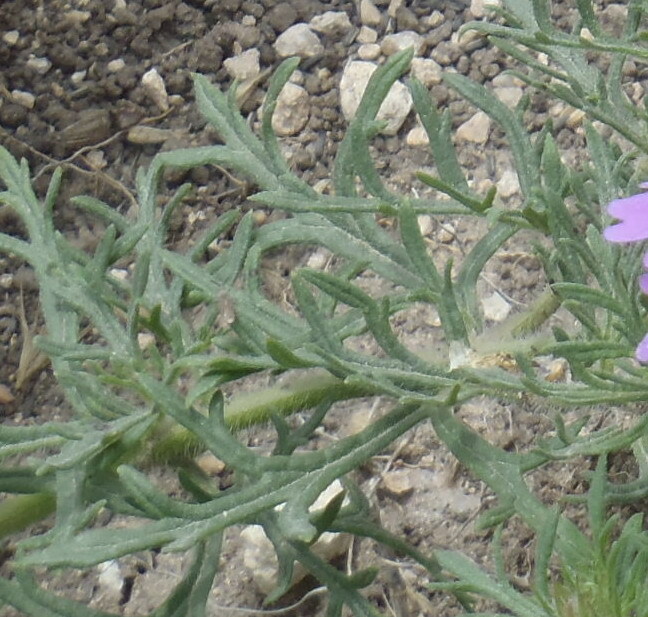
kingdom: Plantae
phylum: Tracheophyta
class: Magnoliopsida
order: Lamiales
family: Verbenaceae
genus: Verbena
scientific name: Verbena bipinnatifida
